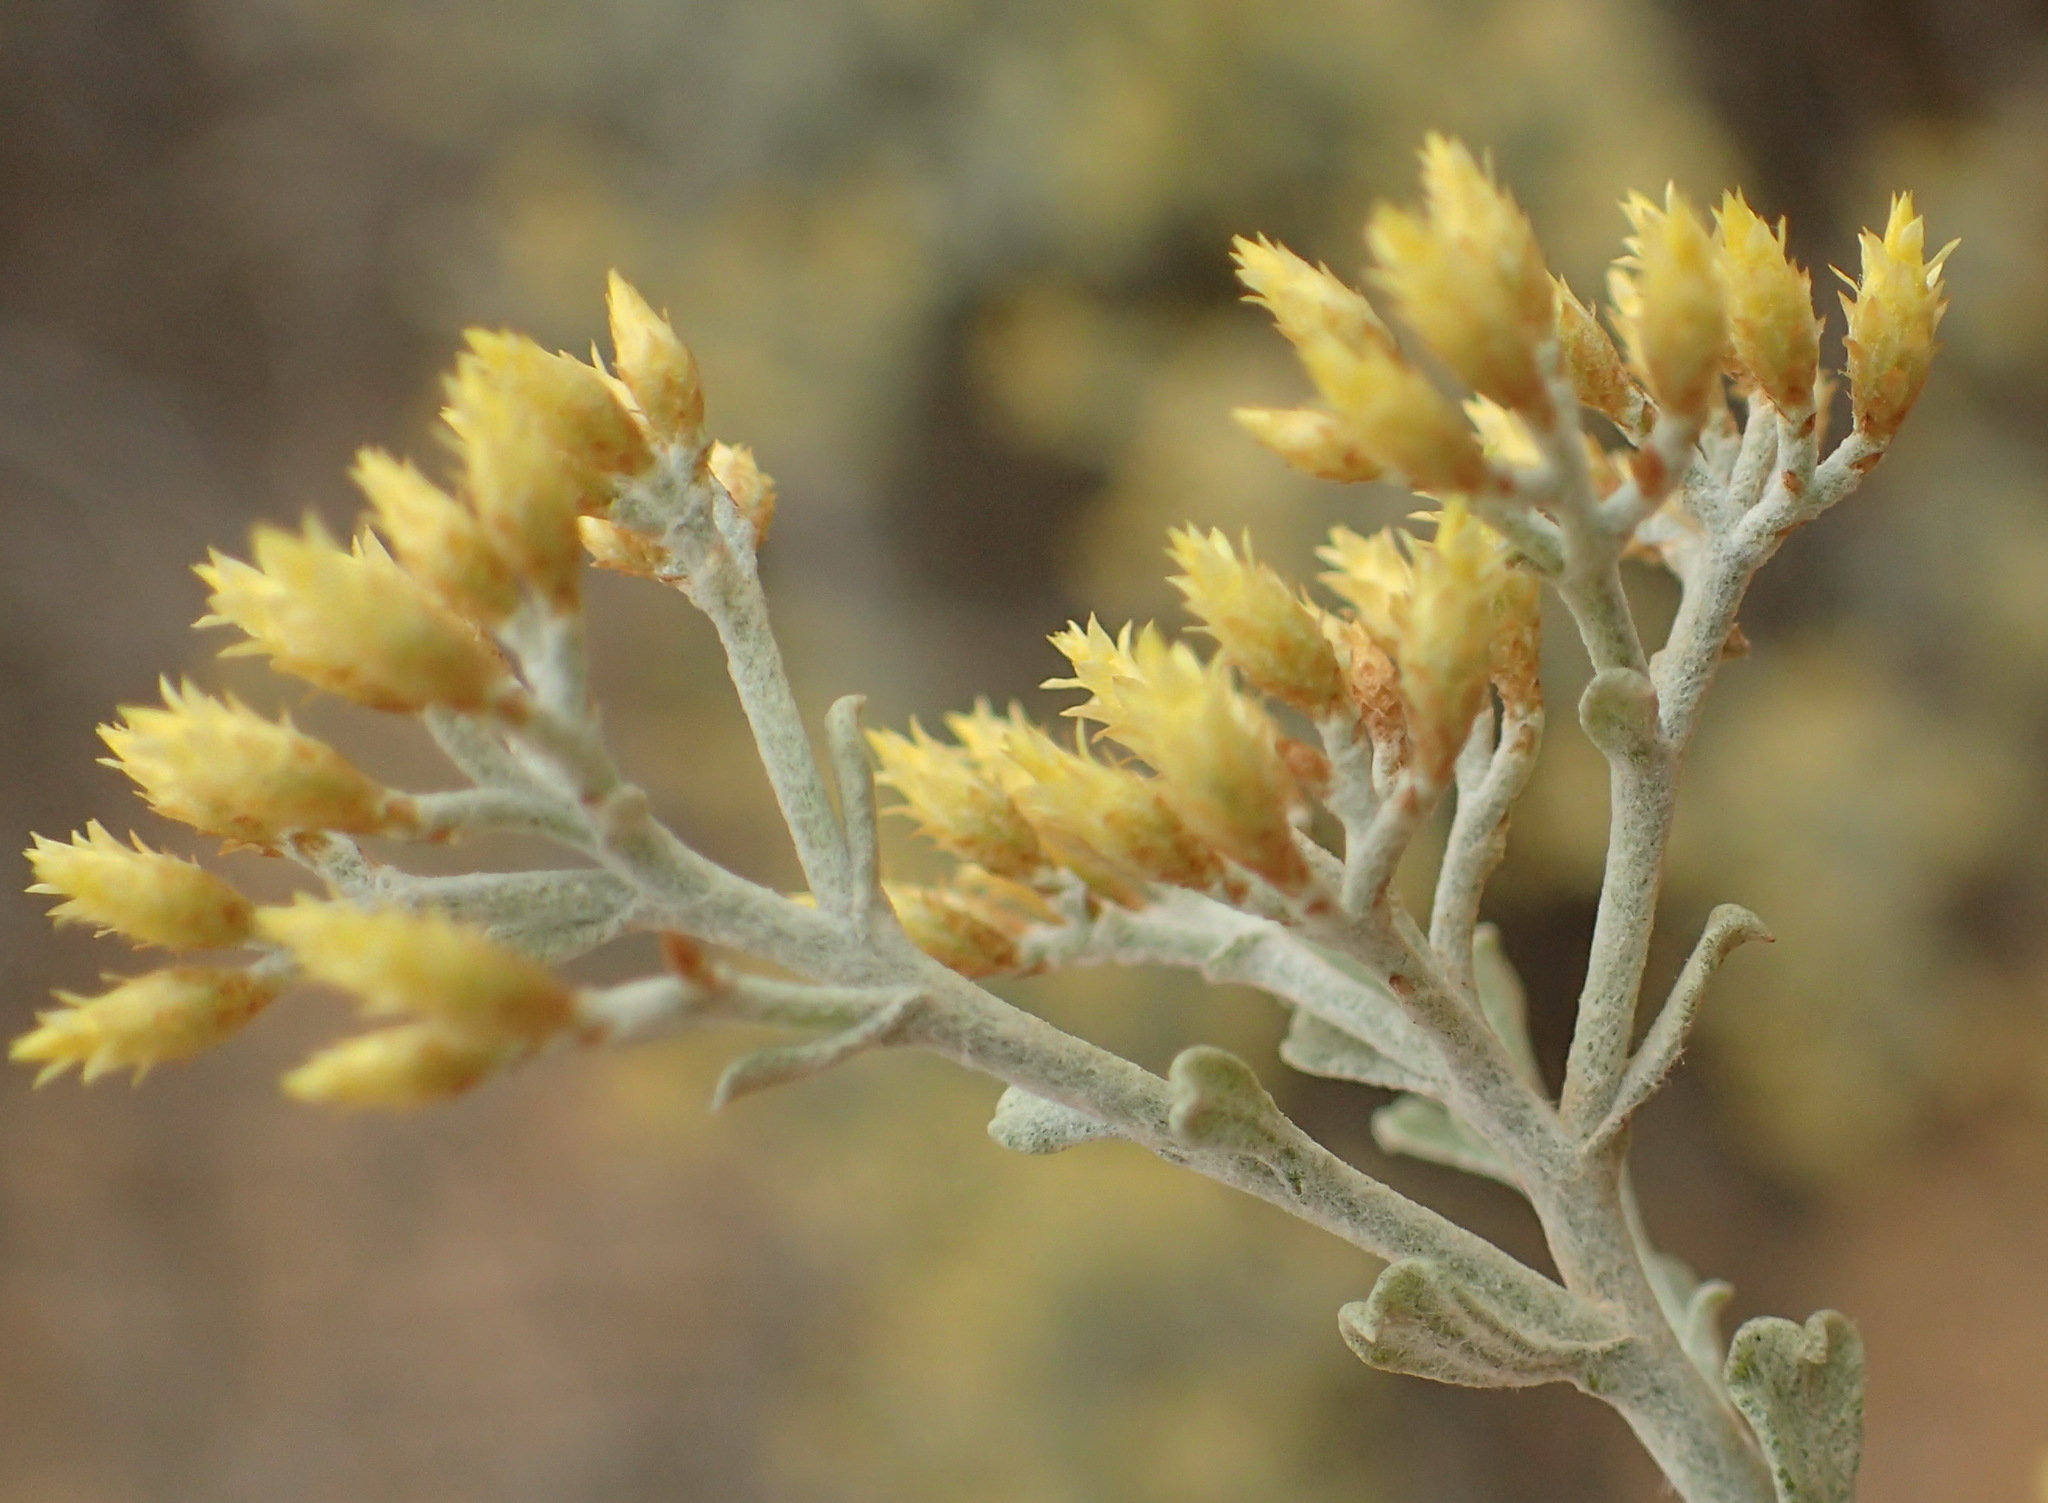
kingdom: Plantae
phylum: Tracheophyta
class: Magnoliopsida
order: Asterales
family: Asteraceae
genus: Helichrysum
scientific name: Helichrysum excisum
